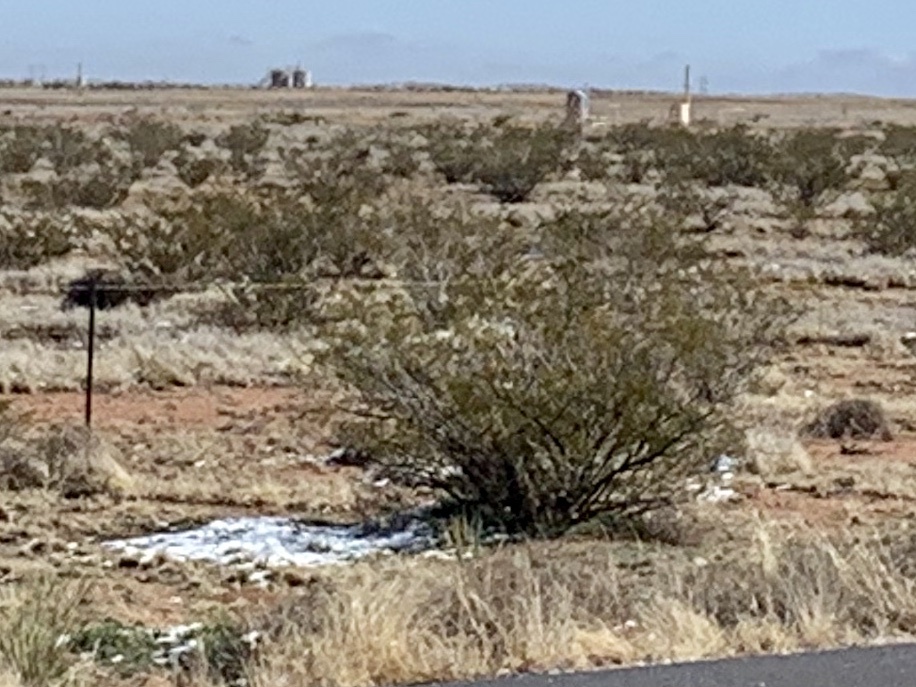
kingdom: Plantae
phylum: Tracheophyta
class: Magnoliopsida
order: Zygophyllales
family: Zygophyllaceae
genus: Larrea
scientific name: Larrea tridentata
